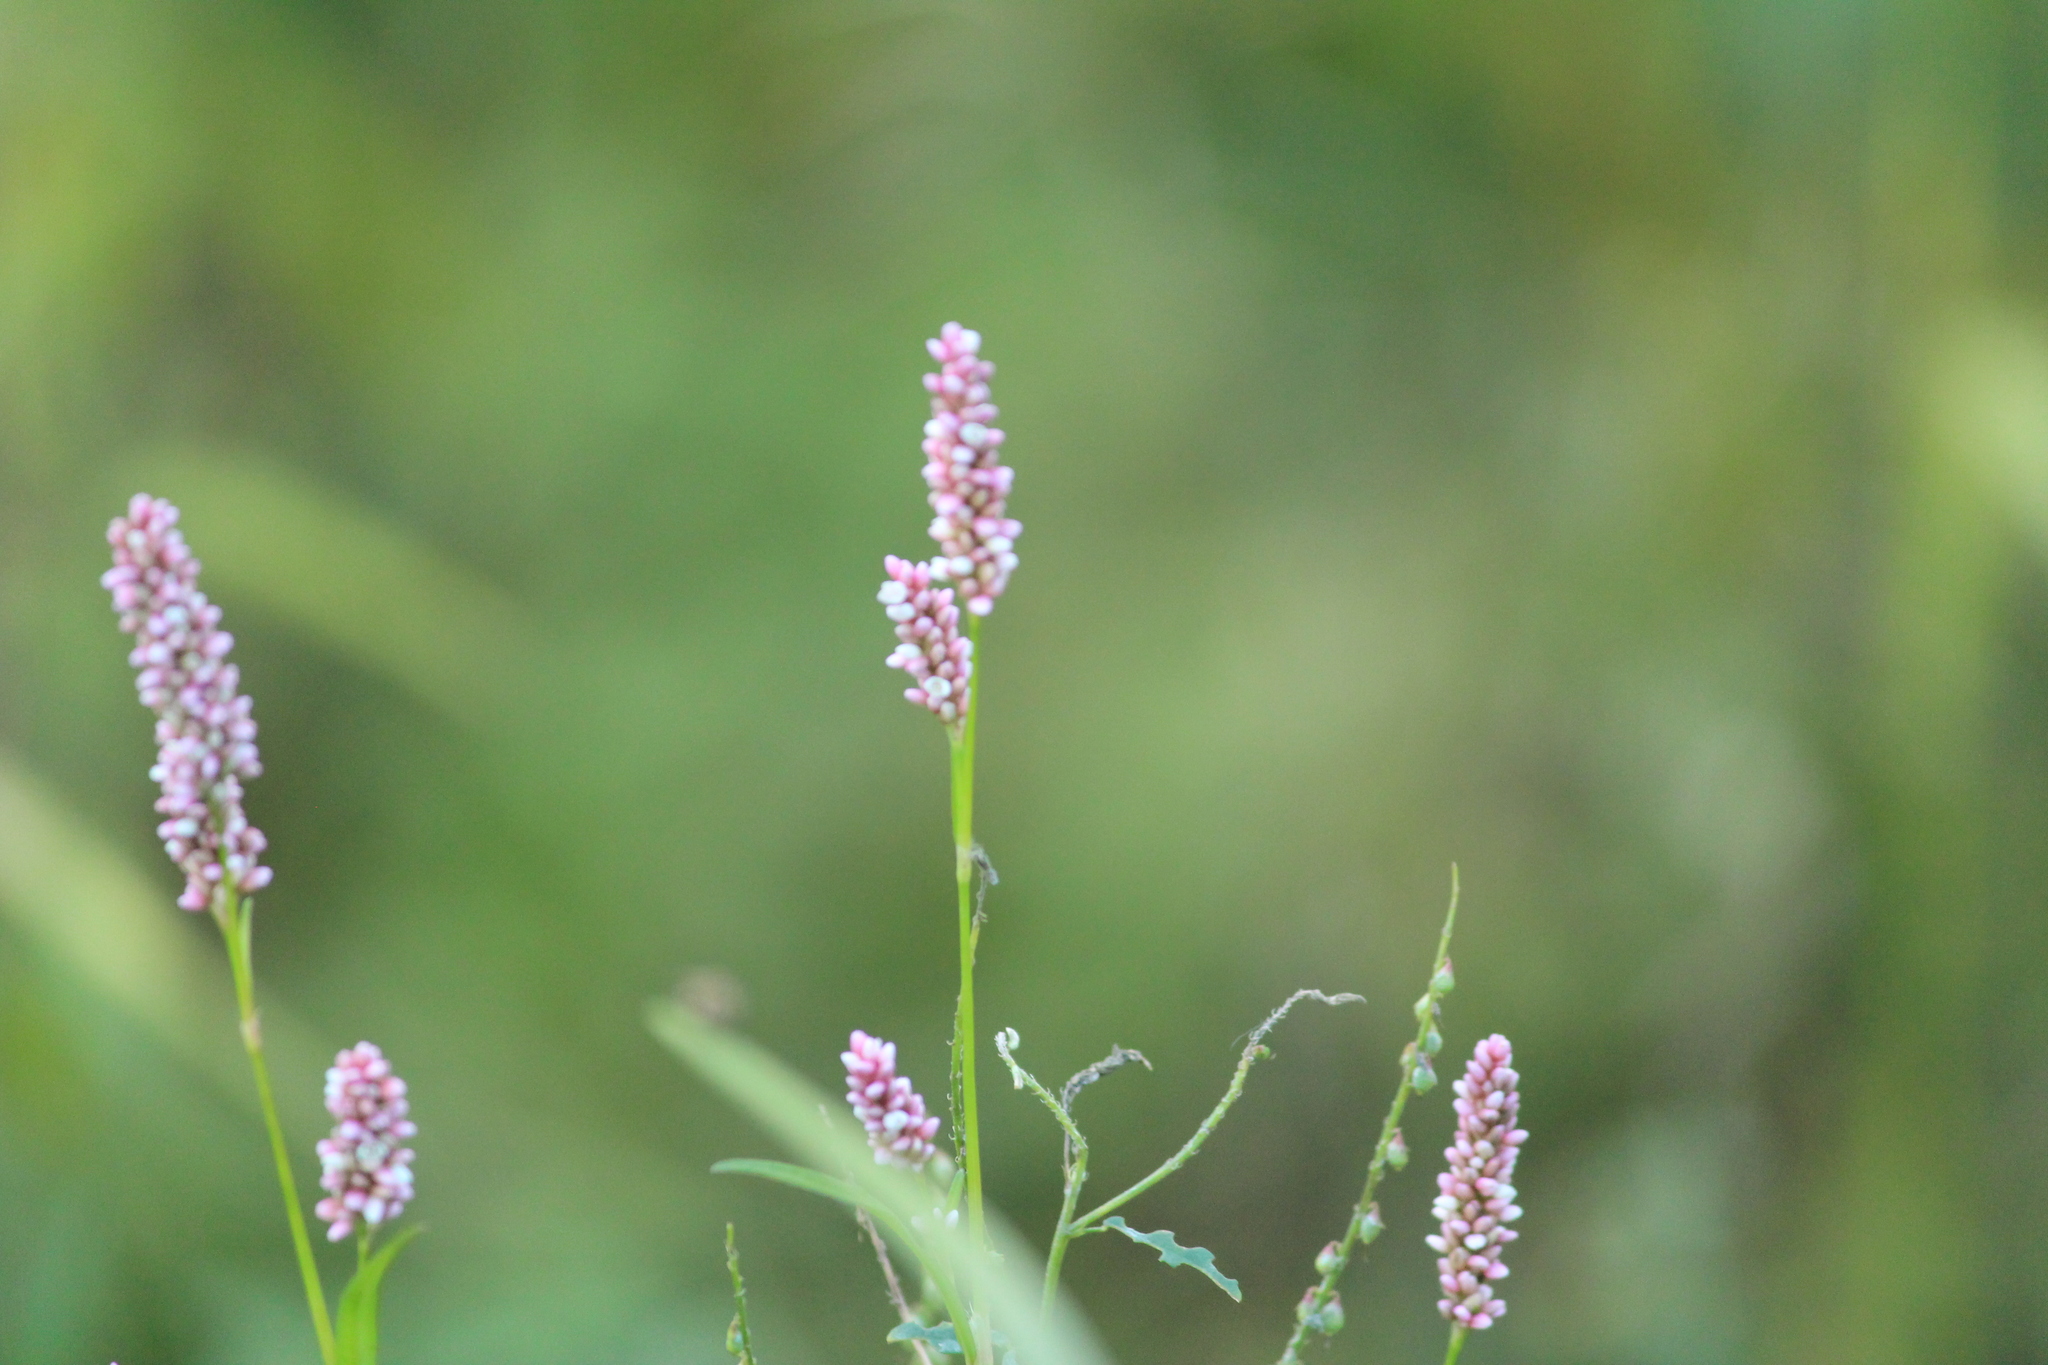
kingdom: Plantae
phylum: Tracheophyta
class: Magnoliopsida
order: Caryophyllales
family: Polygonaceae
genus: Persicaria
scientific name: Persicaria maculosa
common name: Redshank
